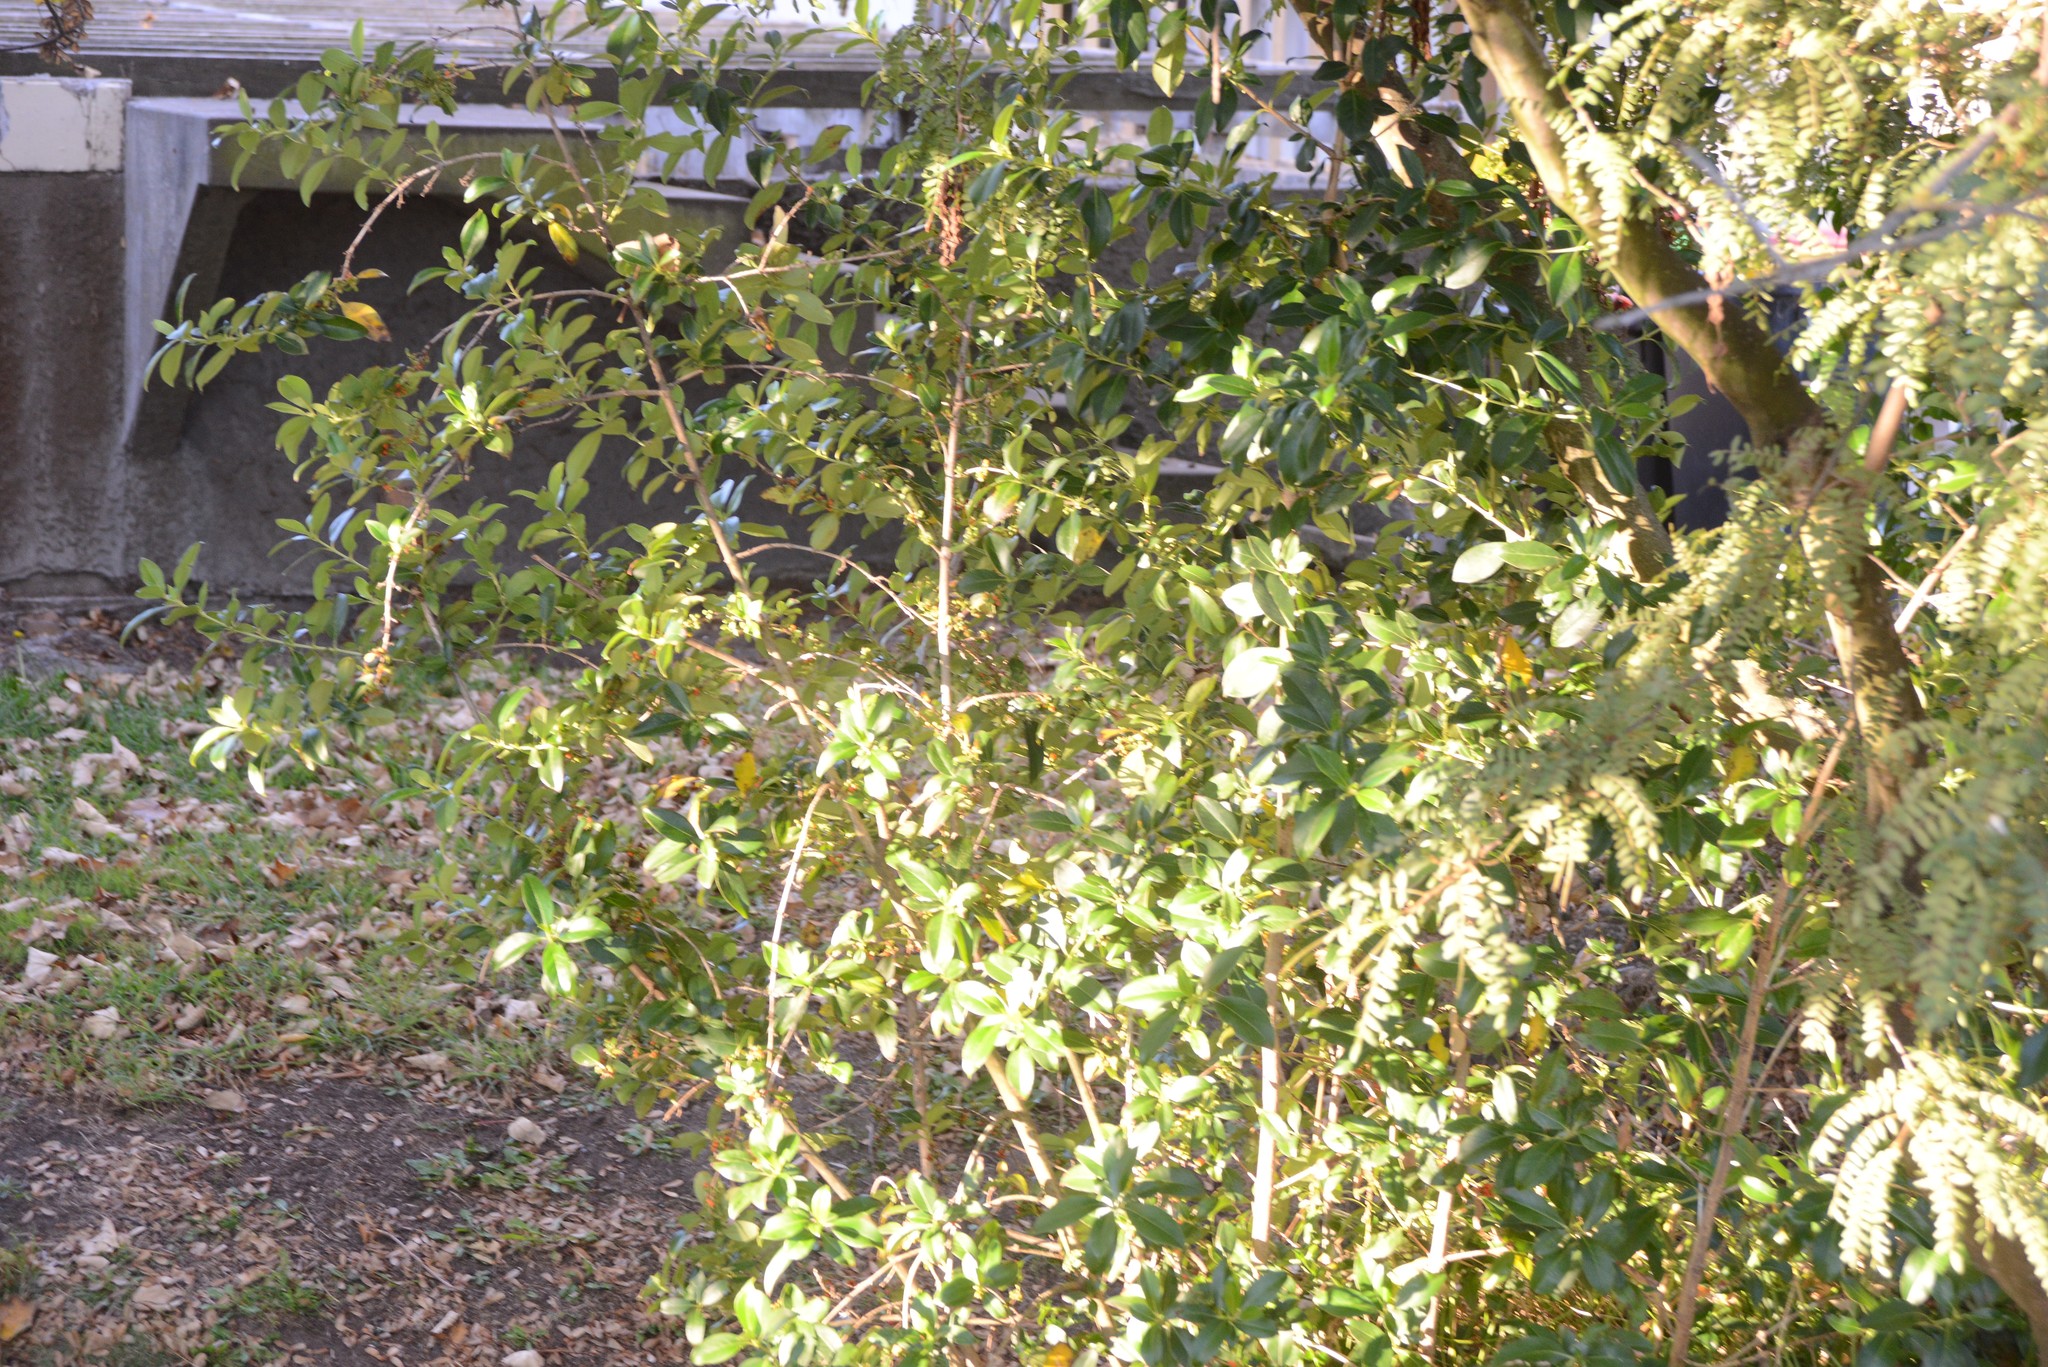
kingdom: Plantae
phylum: Tracheophyta
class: Magnoliopsida
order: Gentianales
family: Rubiaceae
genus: Coprosma
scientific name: Coprosma robusta
